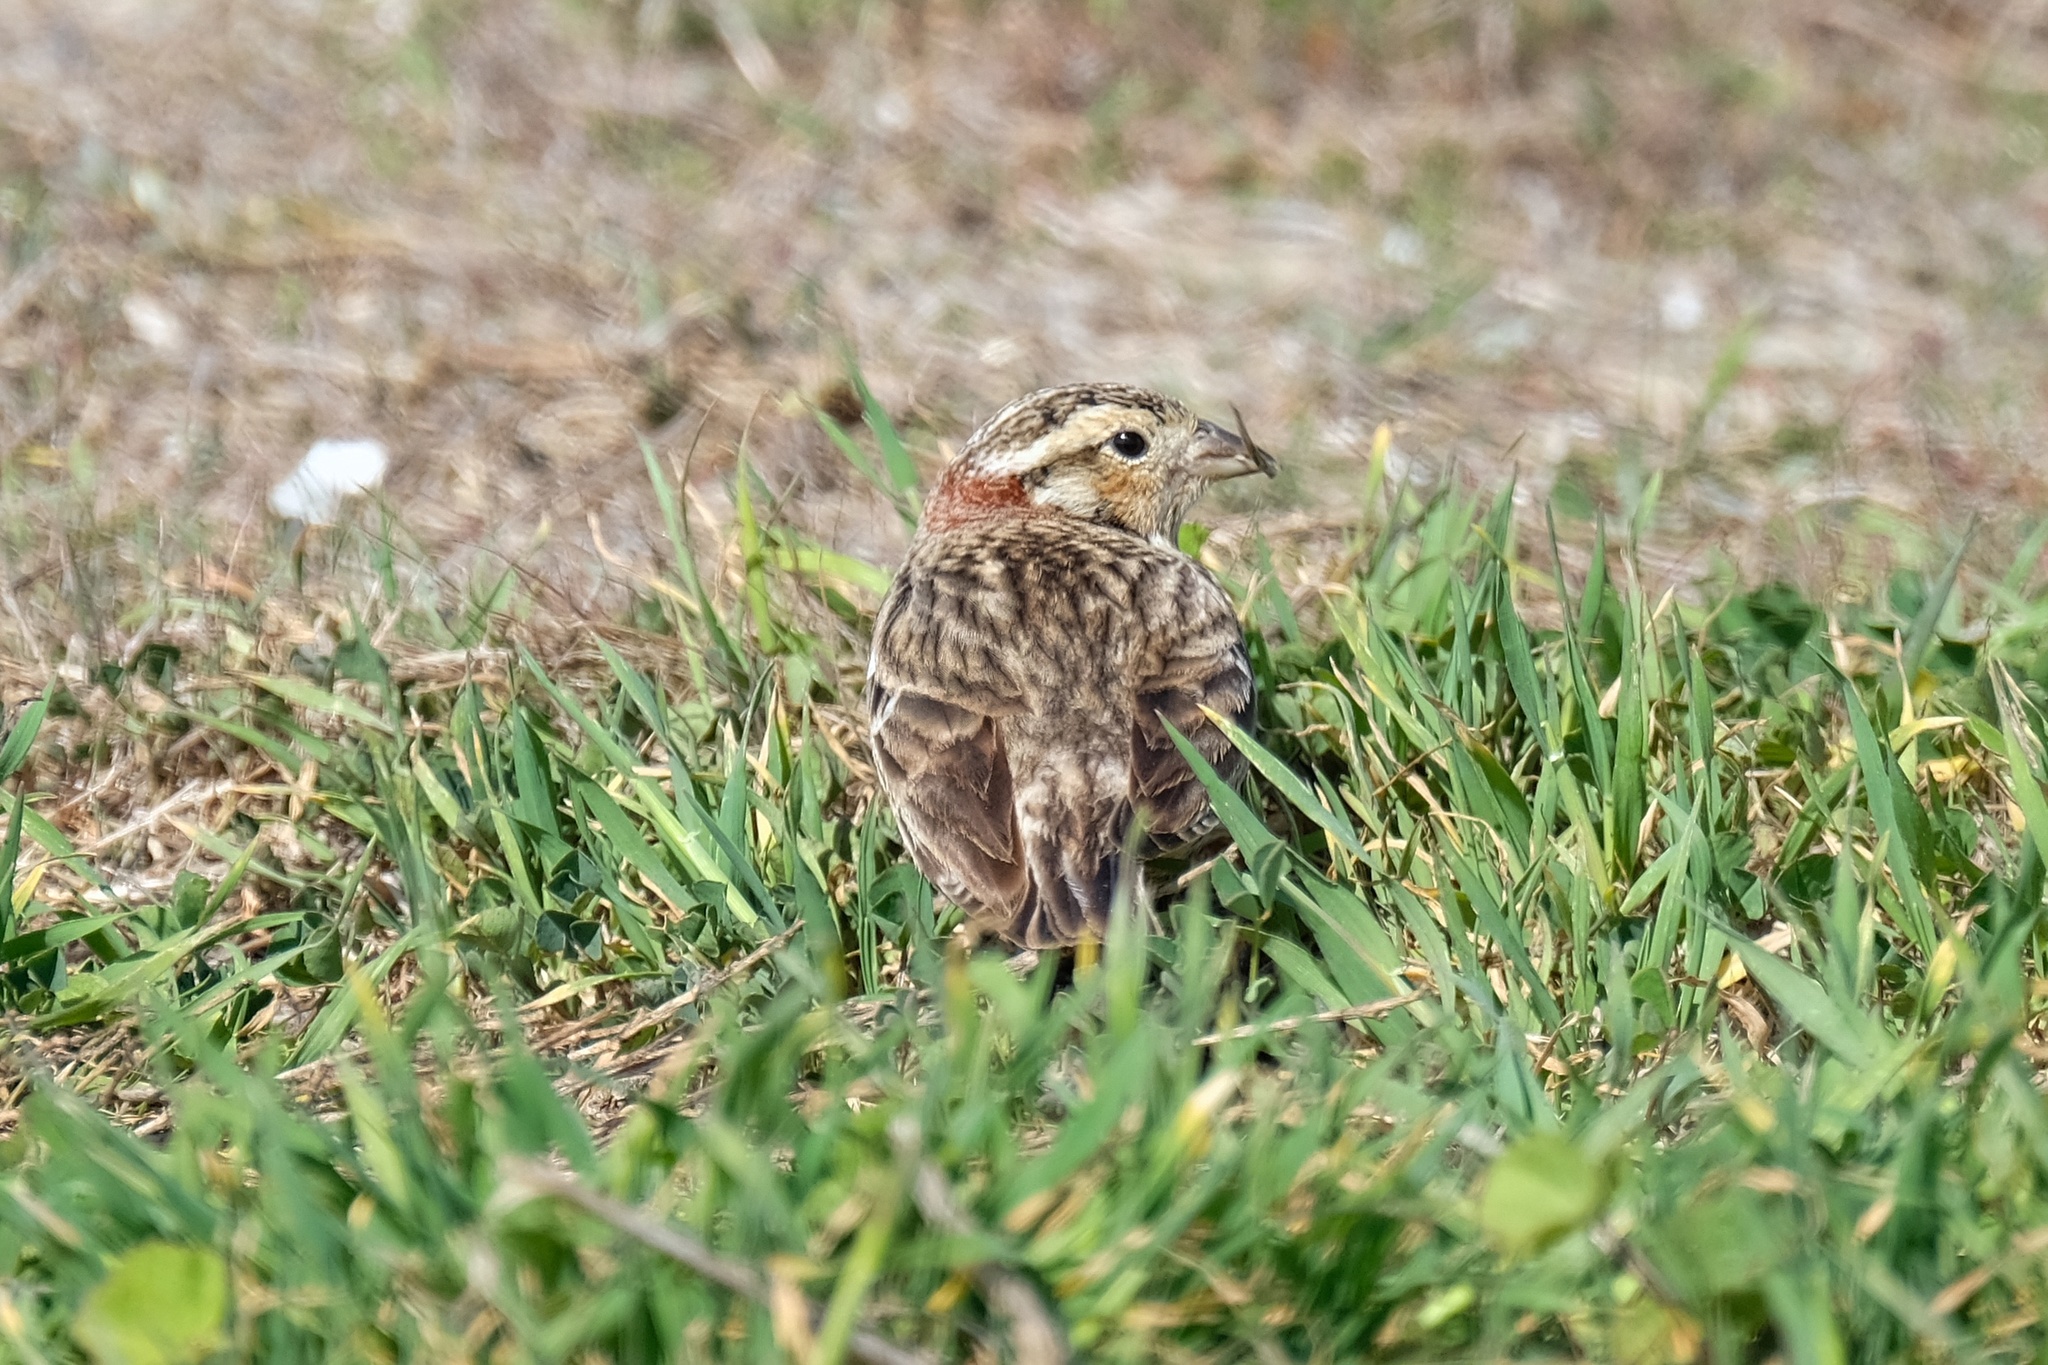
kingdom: Animalia
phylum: Chordata
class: Aves
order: Passeriformes
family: Calcariidae
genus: Calcarius
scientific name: Calcarius ornatus
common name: Chestnut-collared longspur
